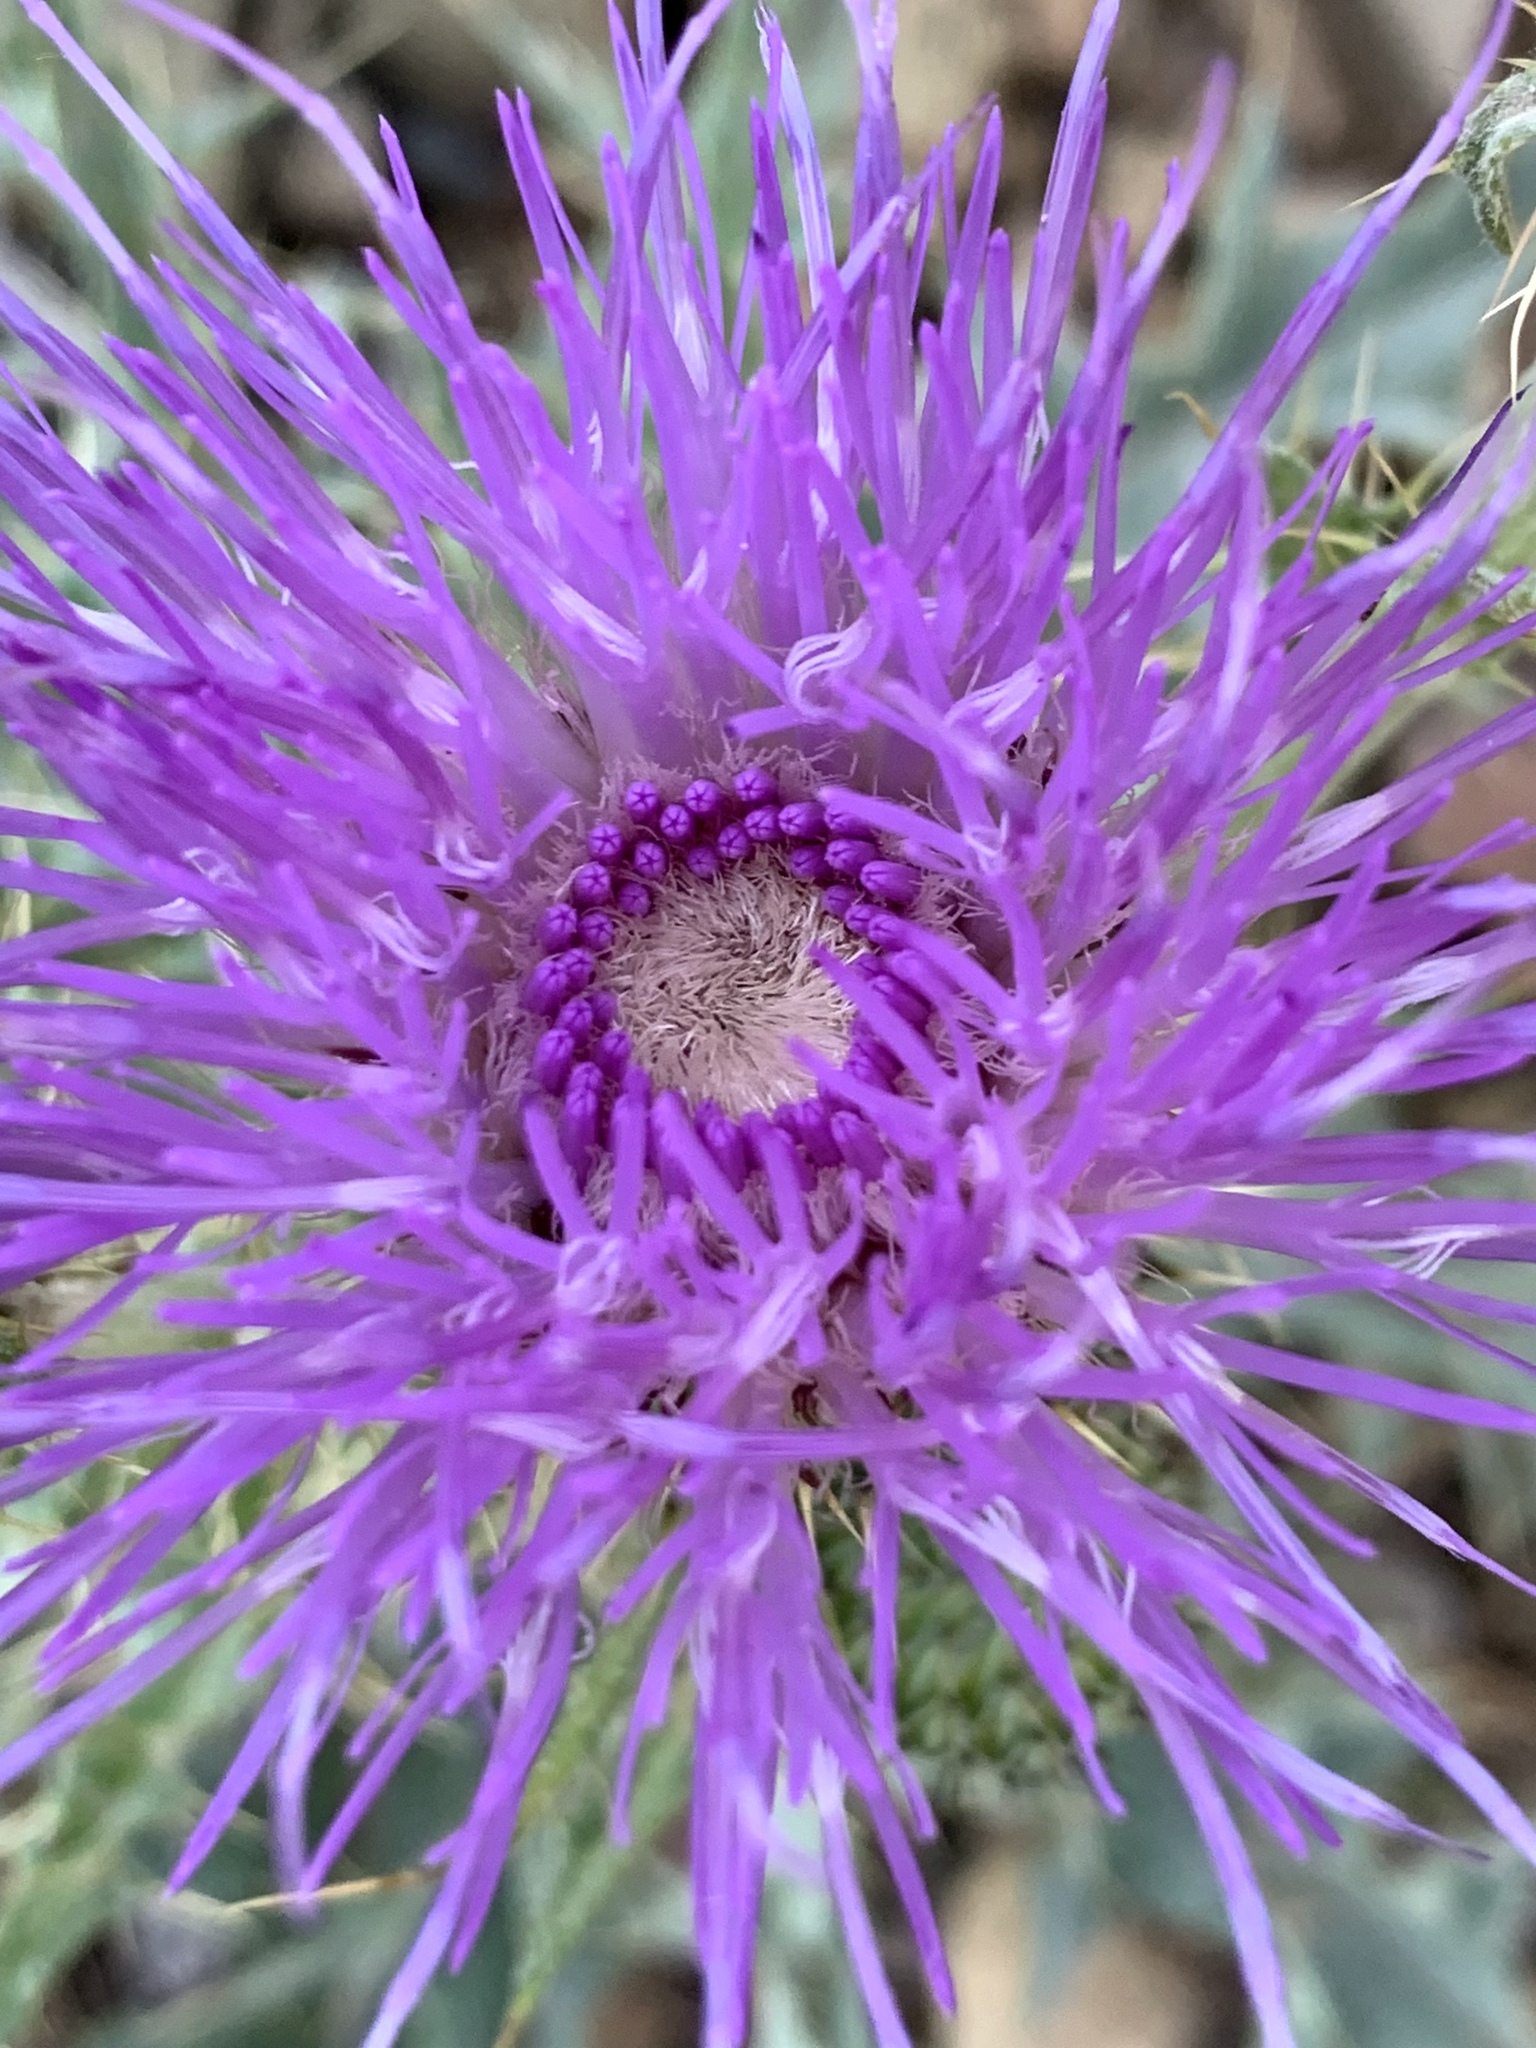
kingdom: Plantae
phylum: Tracheophyta
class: Magnoliopsida
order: Asterales
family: Asteraceae
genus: Cirsium
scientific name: Cirsium undulatum
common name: Pasture thistle
